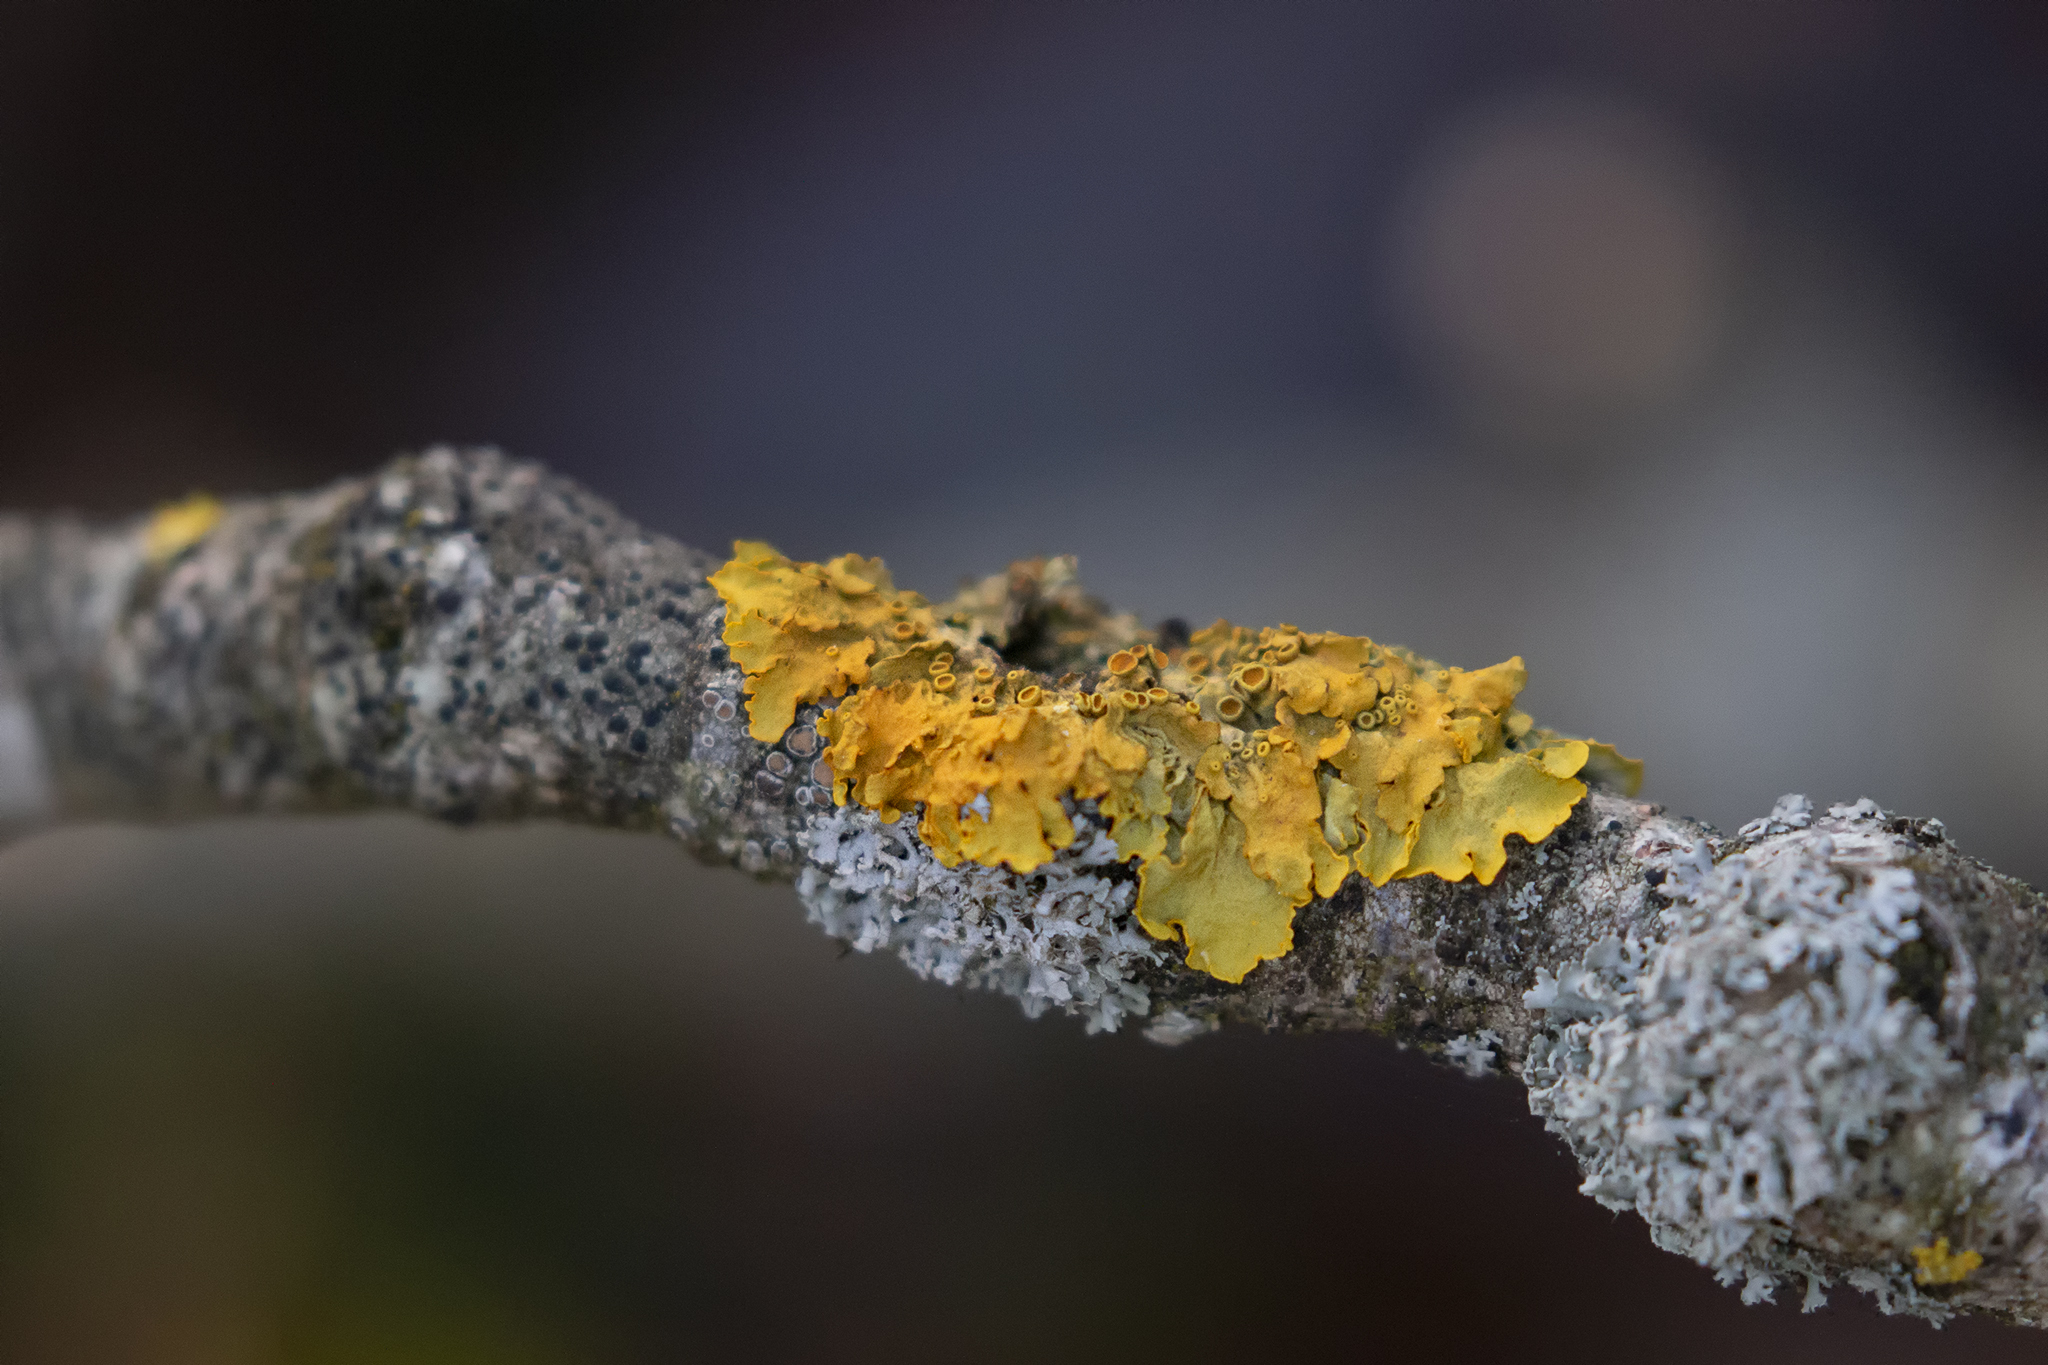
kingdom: Fungi
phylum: Ascomycota
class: Lecanoromycetes
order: Teloschistales
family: Teloschistaceae
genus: Xanthoria
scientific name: Xanthoria parietina
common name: Common orange lichen
